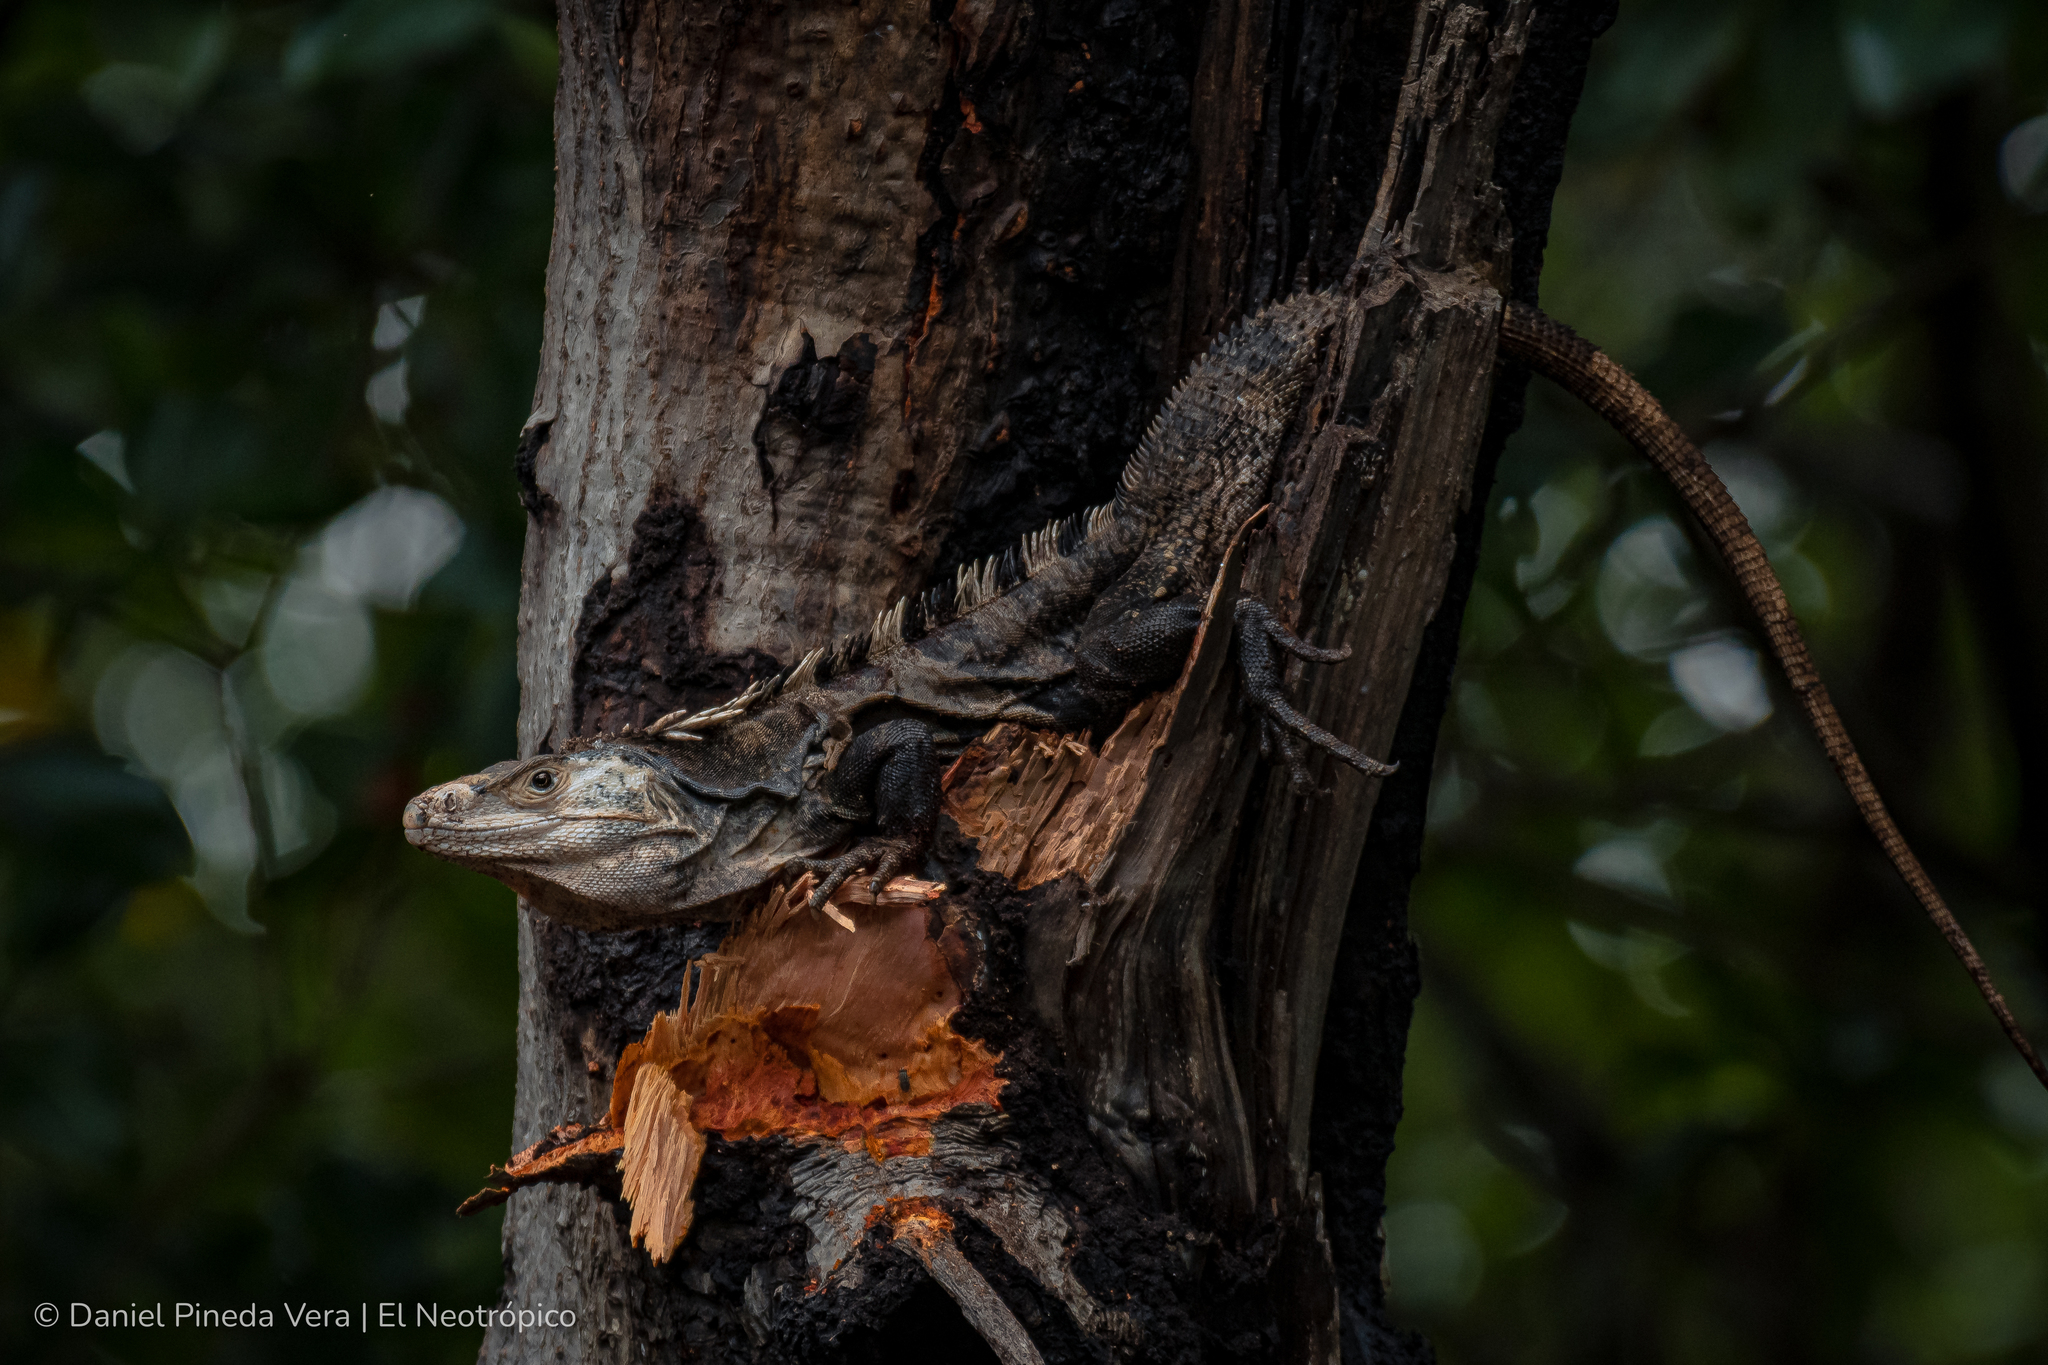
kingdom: Animalia
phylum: Chordata
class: Squamata
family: Iguanidae
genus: Ctenosaura
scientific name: Ctenosaura similis
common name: Black spiny-tailed iguana
